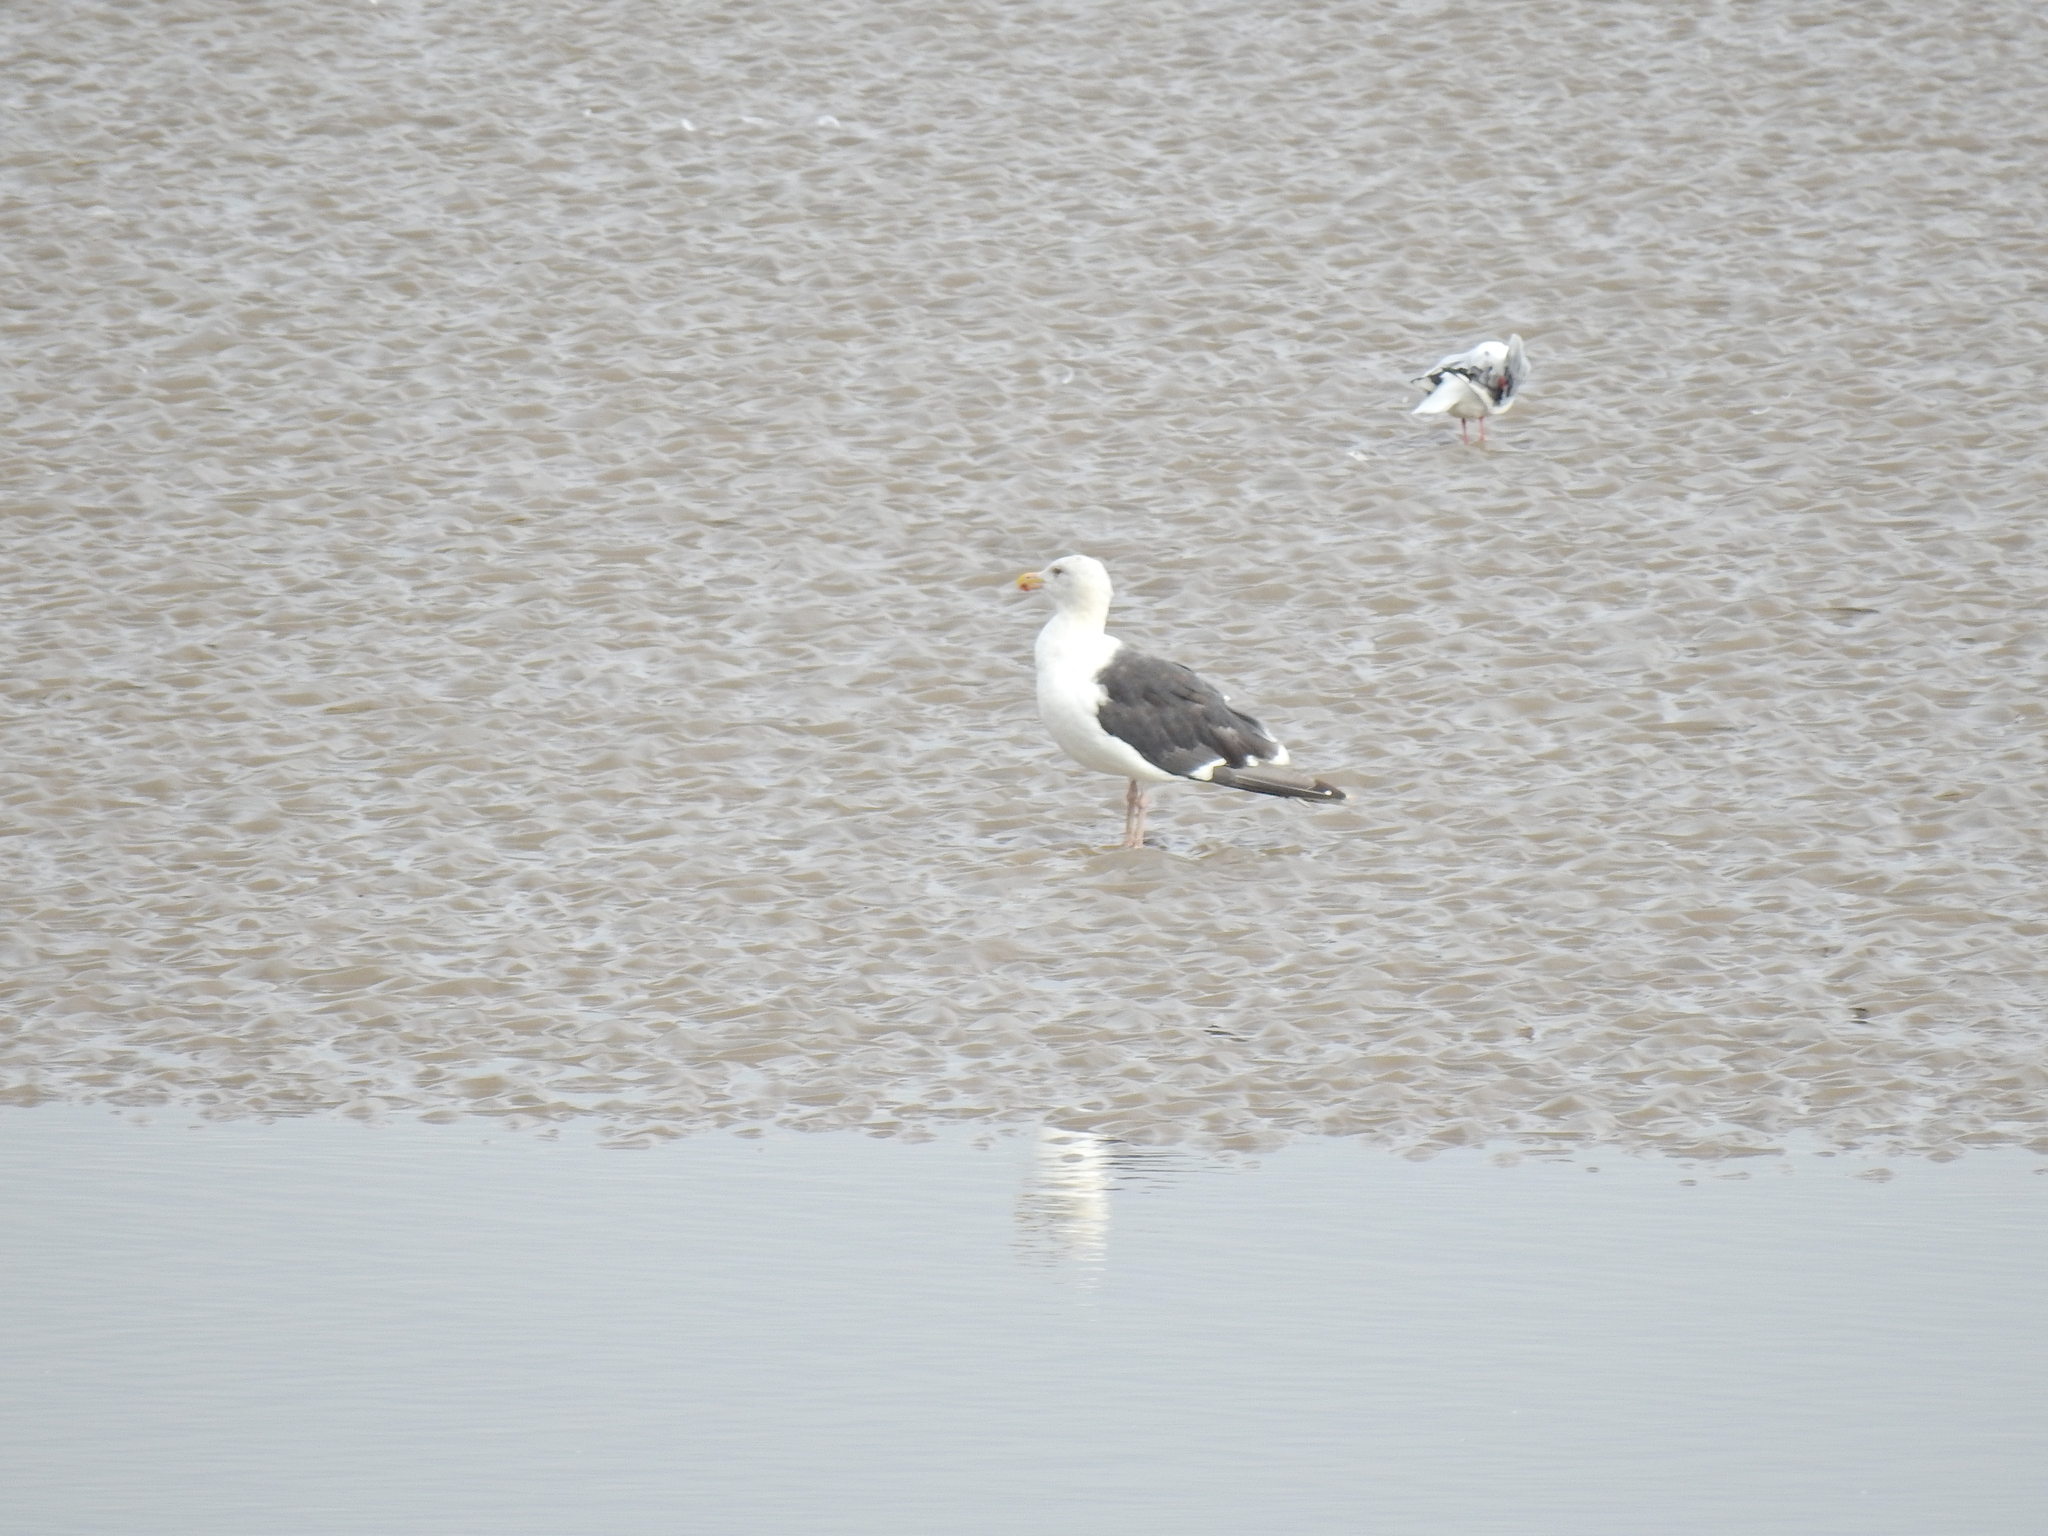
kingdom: Animalia
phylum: Chordata
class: Aves
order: Charadriiformes
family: Laridae
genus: Larus
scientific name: Larus marinus
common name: Great black-backed gull
